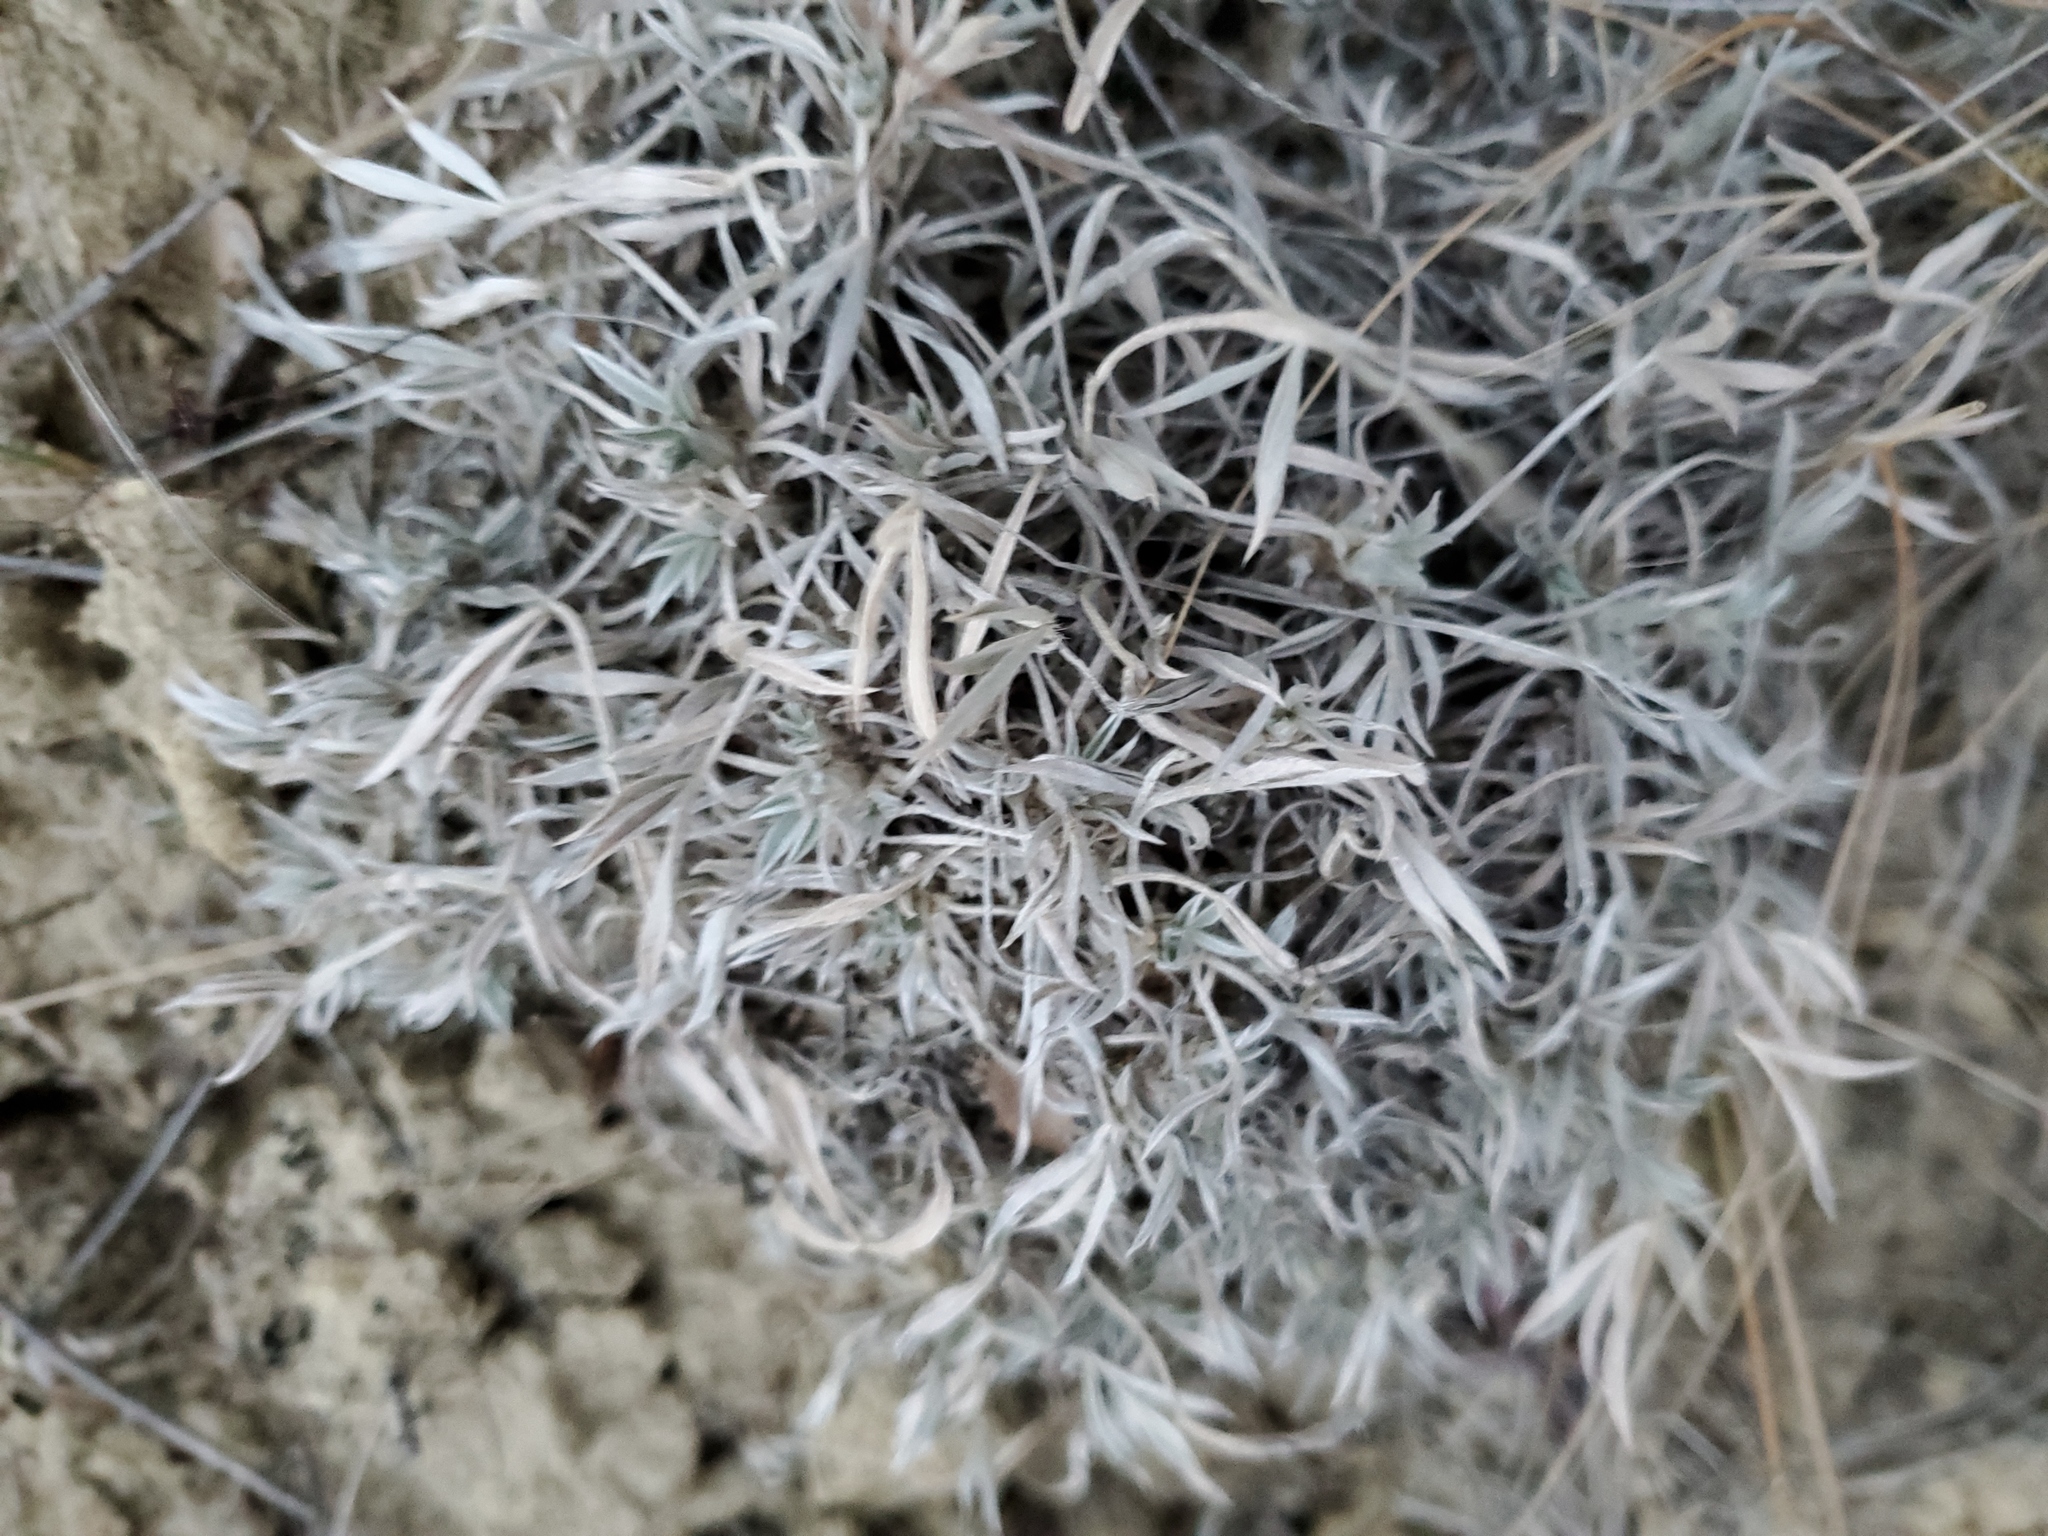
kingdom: Plantae
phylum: Tracheophyta
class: Magnoliopsida
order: Fabales
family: Fabaceae
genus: Astragalus
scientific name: Astragalus gilviflorus
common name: Cushion milk-vetch
